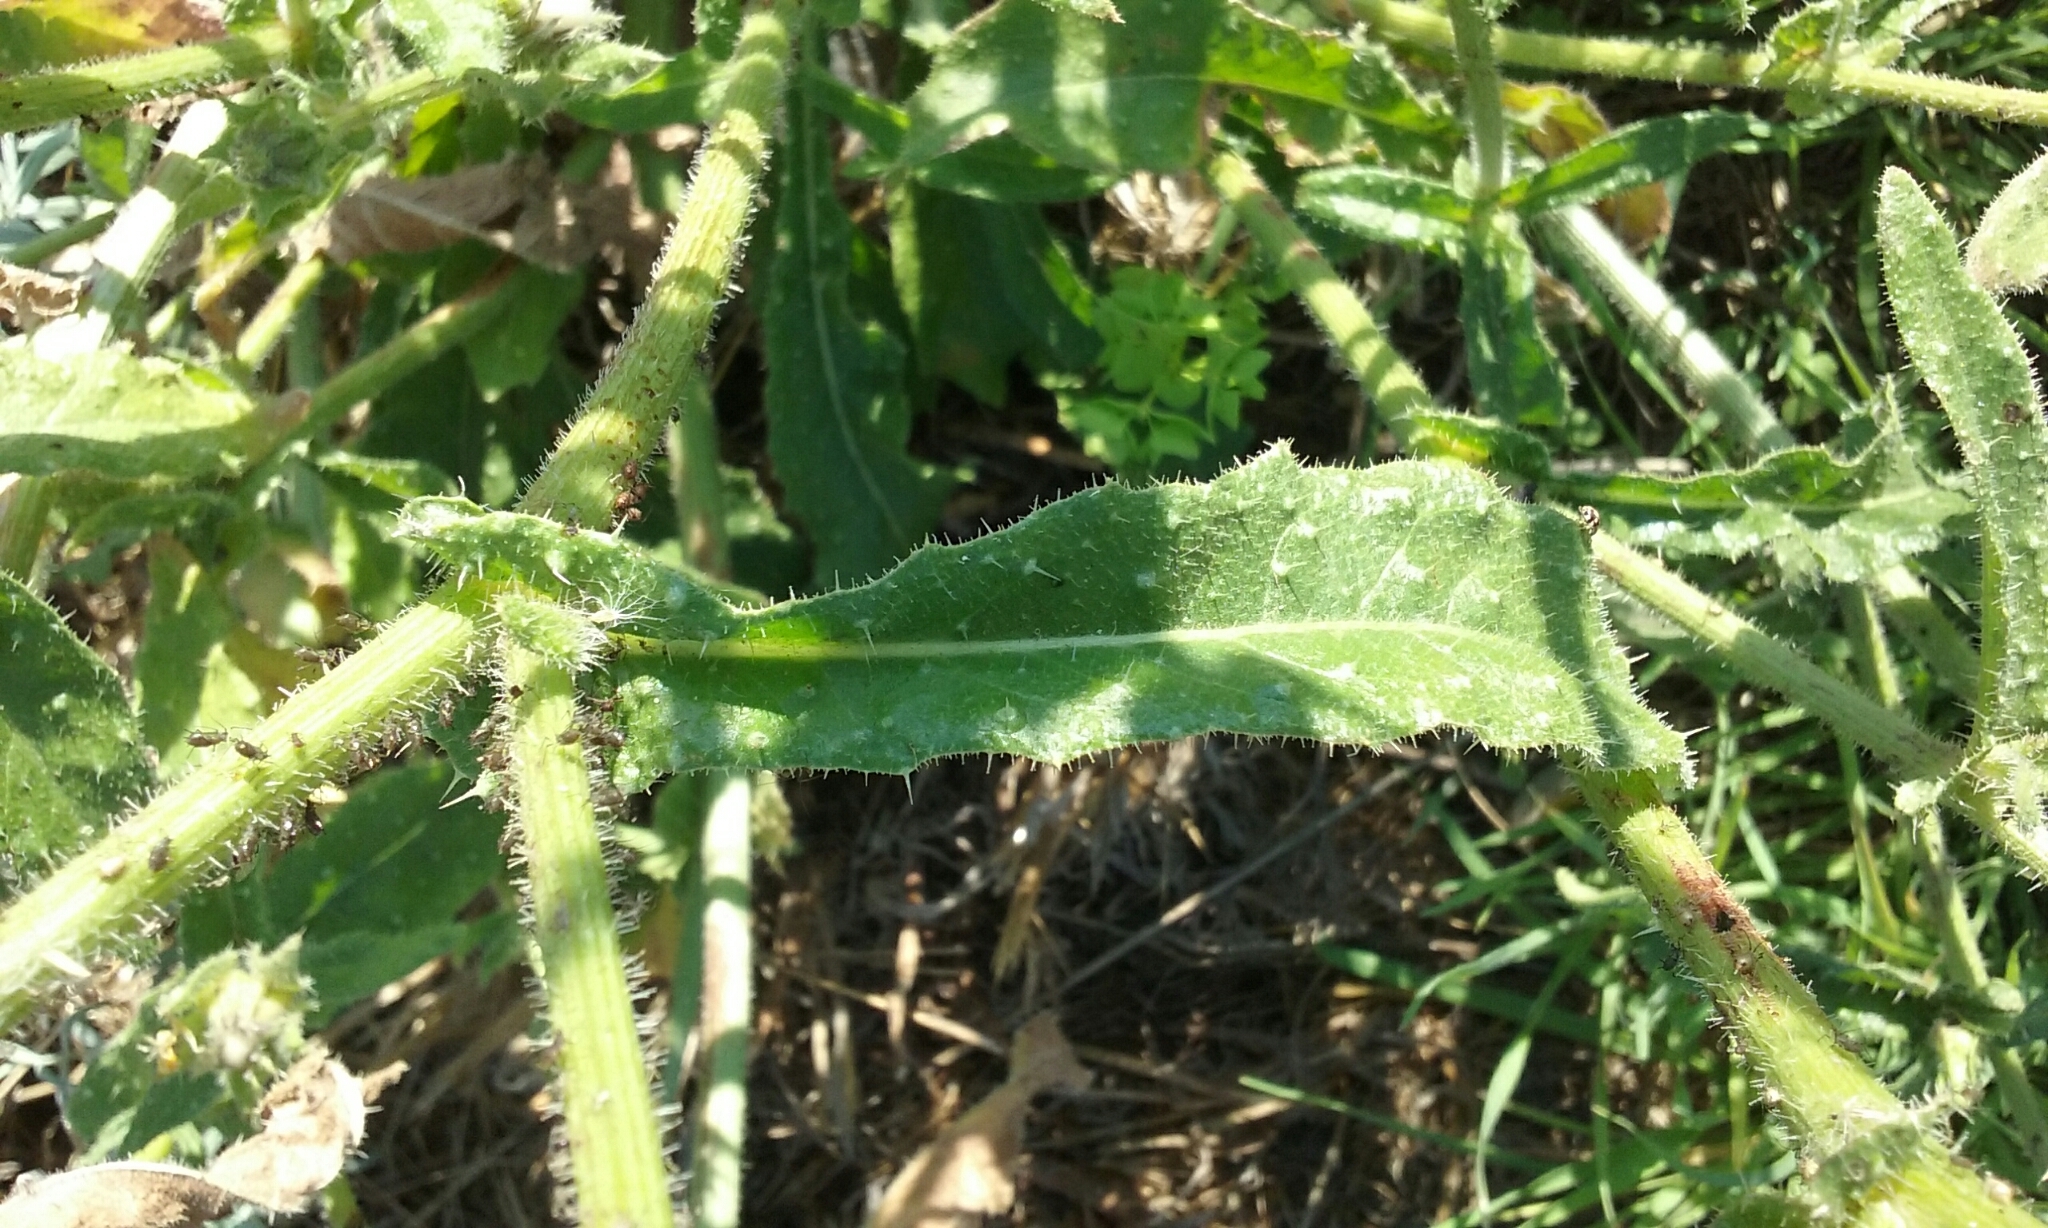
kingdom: Plantae
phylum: Tracheophyta
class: Magnoliopsida
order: Asterales
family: Asteraceae
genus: Helminthotheca
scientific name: Helminthotheca echioides
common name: Ox-tongue
